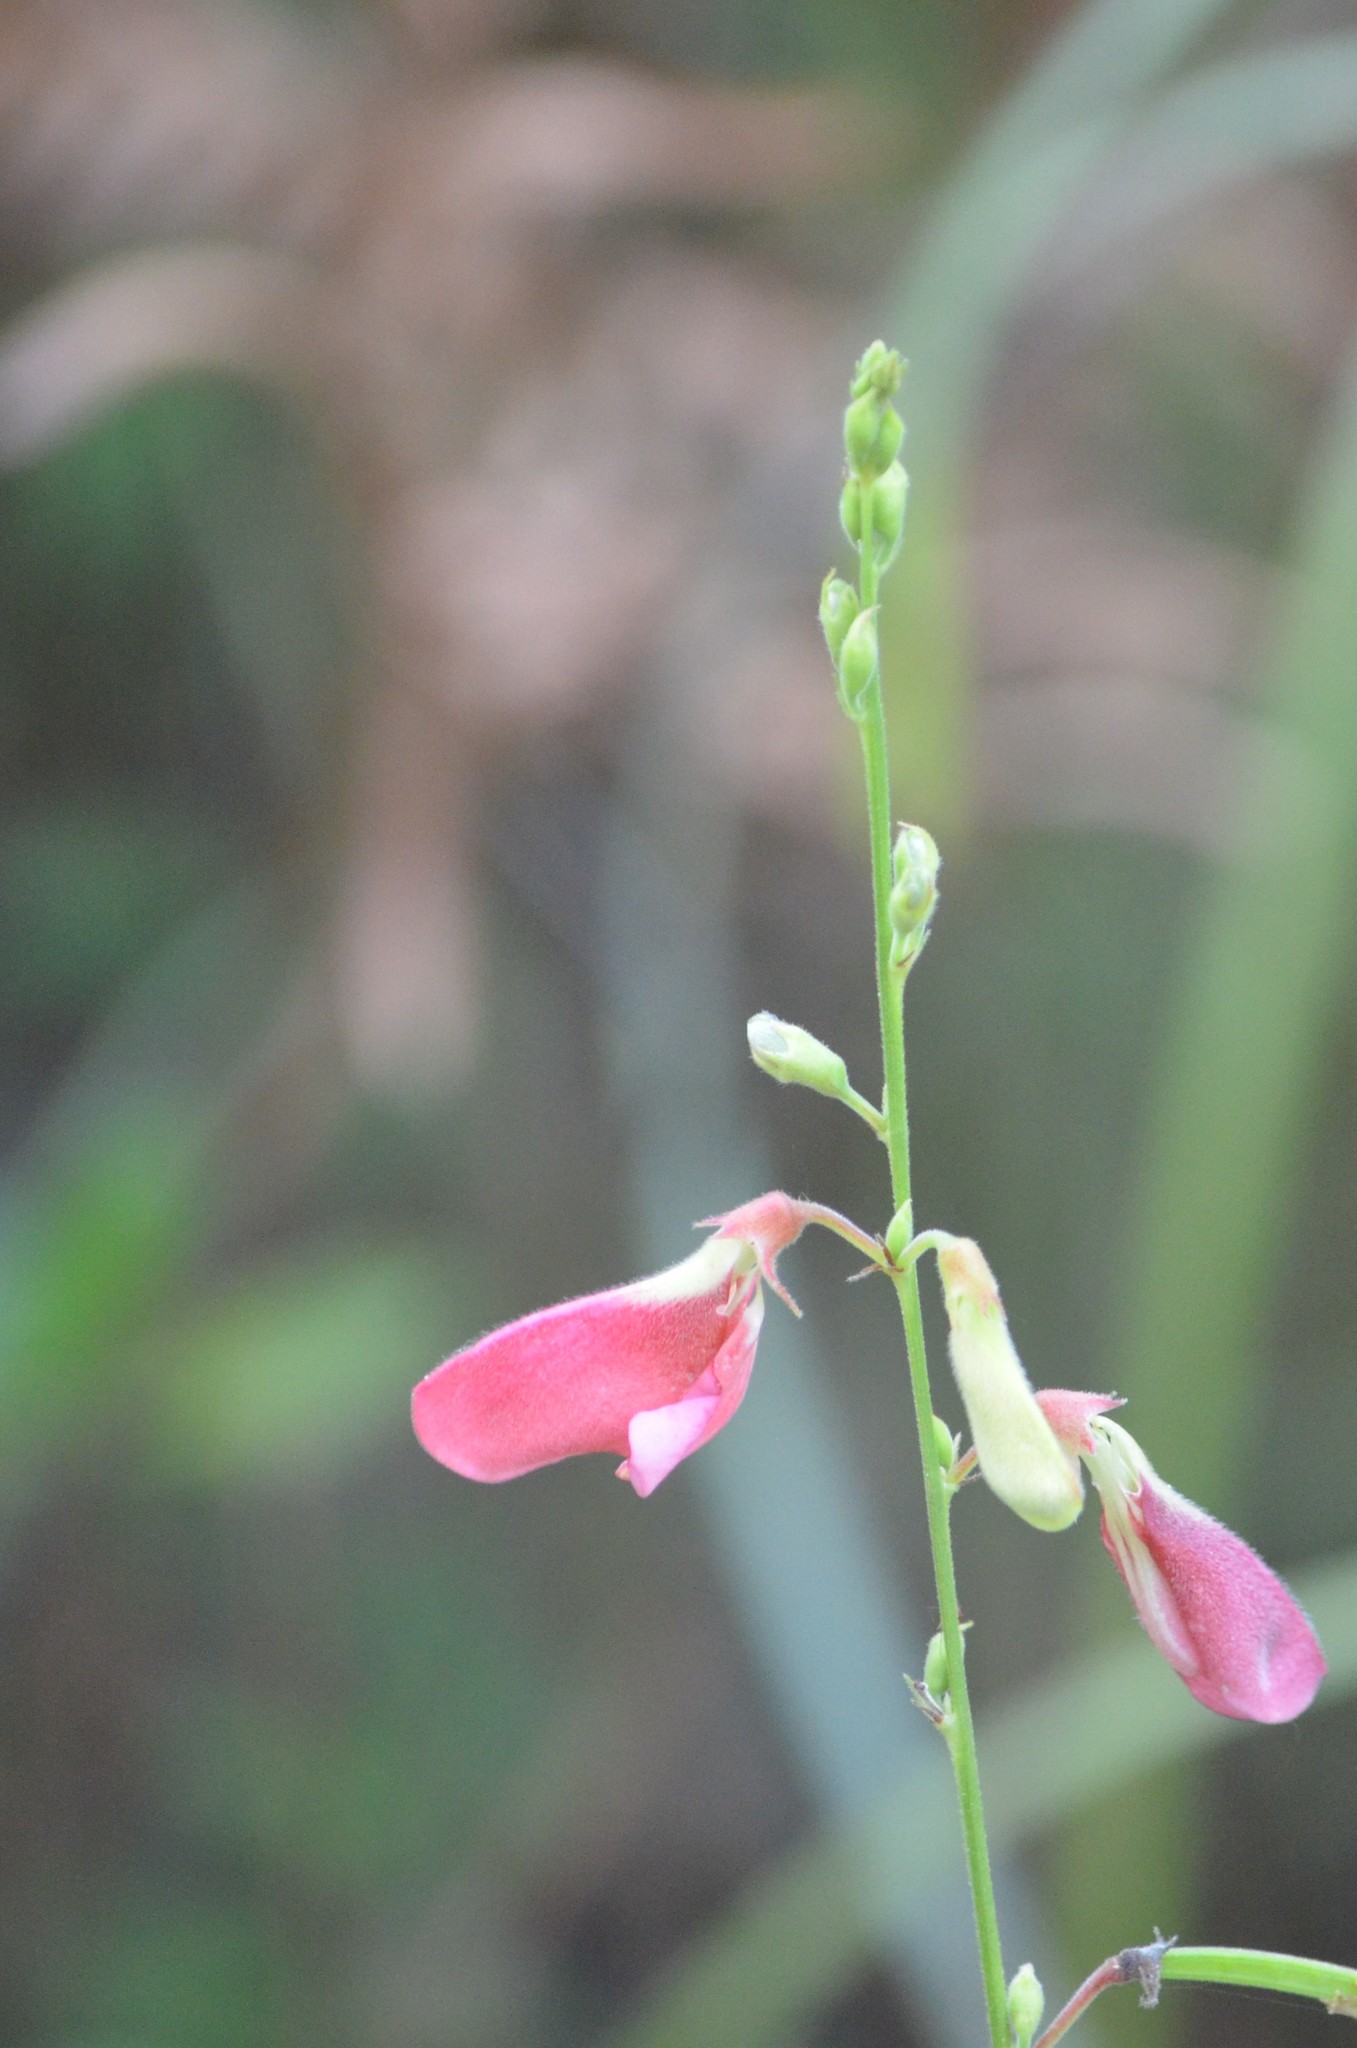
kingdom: Plantae
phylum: Tracheophyta
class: Magnoliopsida
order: Fabales
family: Fabaceae
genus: Tephrosia
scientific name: Tephrosia onobrychoides
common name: Multi-bloom hoary-pea
